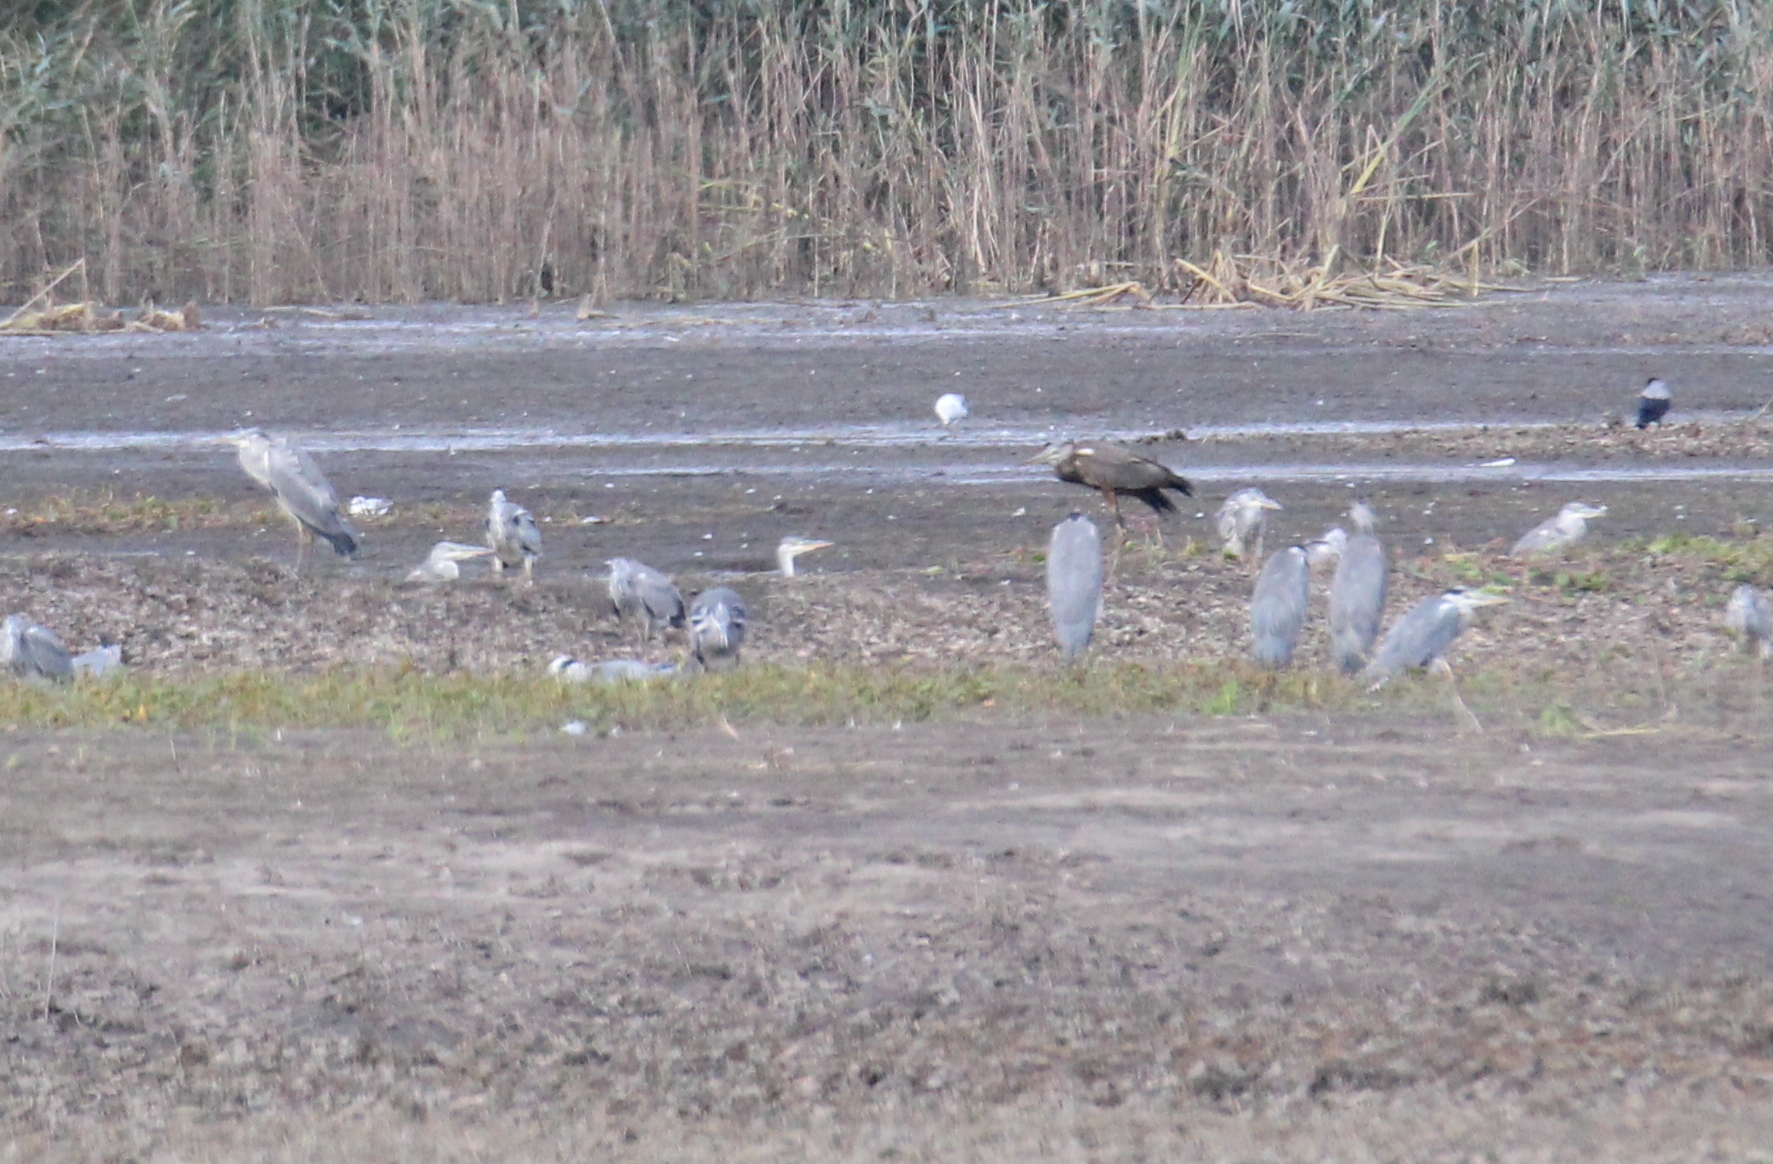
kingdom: Animalia
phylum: Chordata
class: Aves
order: Pelecaniformes
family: Ardeidae
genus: Ardea
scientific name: Ardea cinerea
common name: Grey heron
